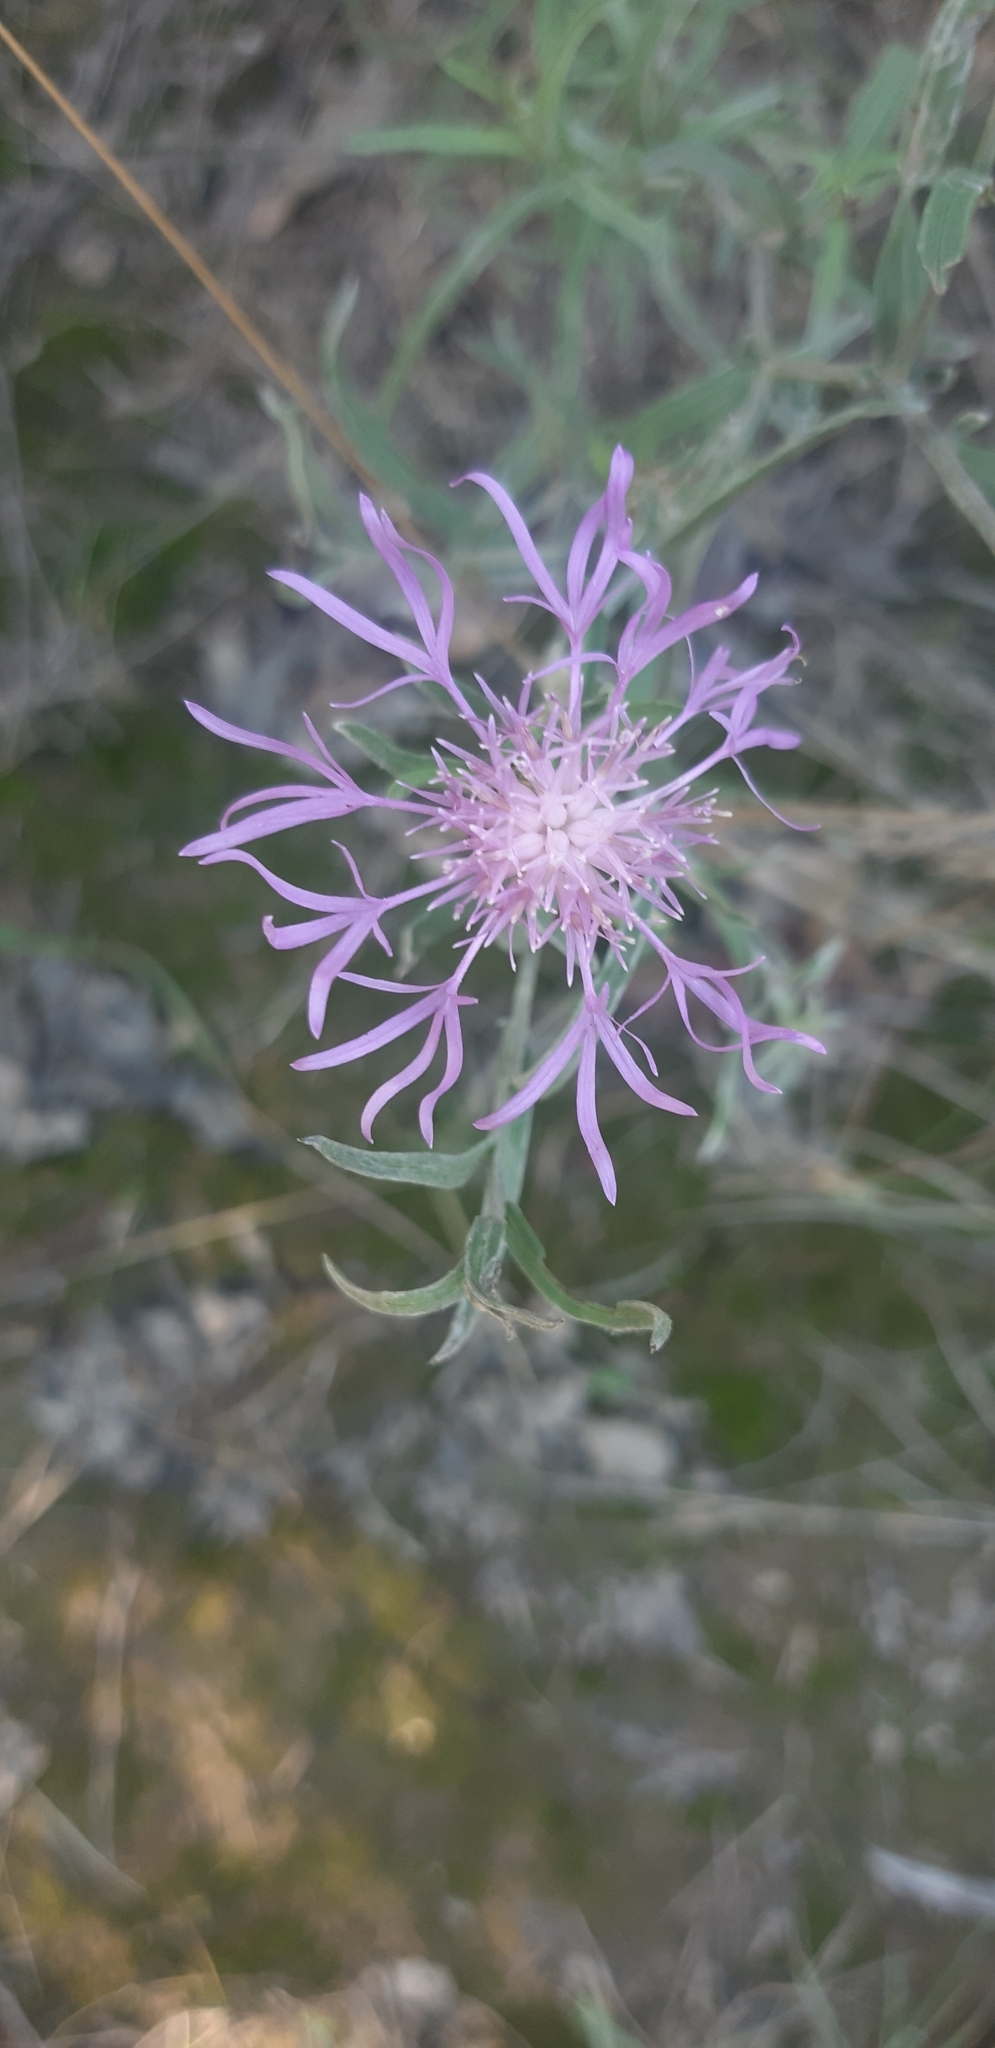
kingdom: Plantae
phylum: Tracheophyta
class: Magnoliopsida
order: Asterales
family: Asteraceae
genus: Centaurea
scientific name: Centaurea jacea
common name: Brown knapweed
